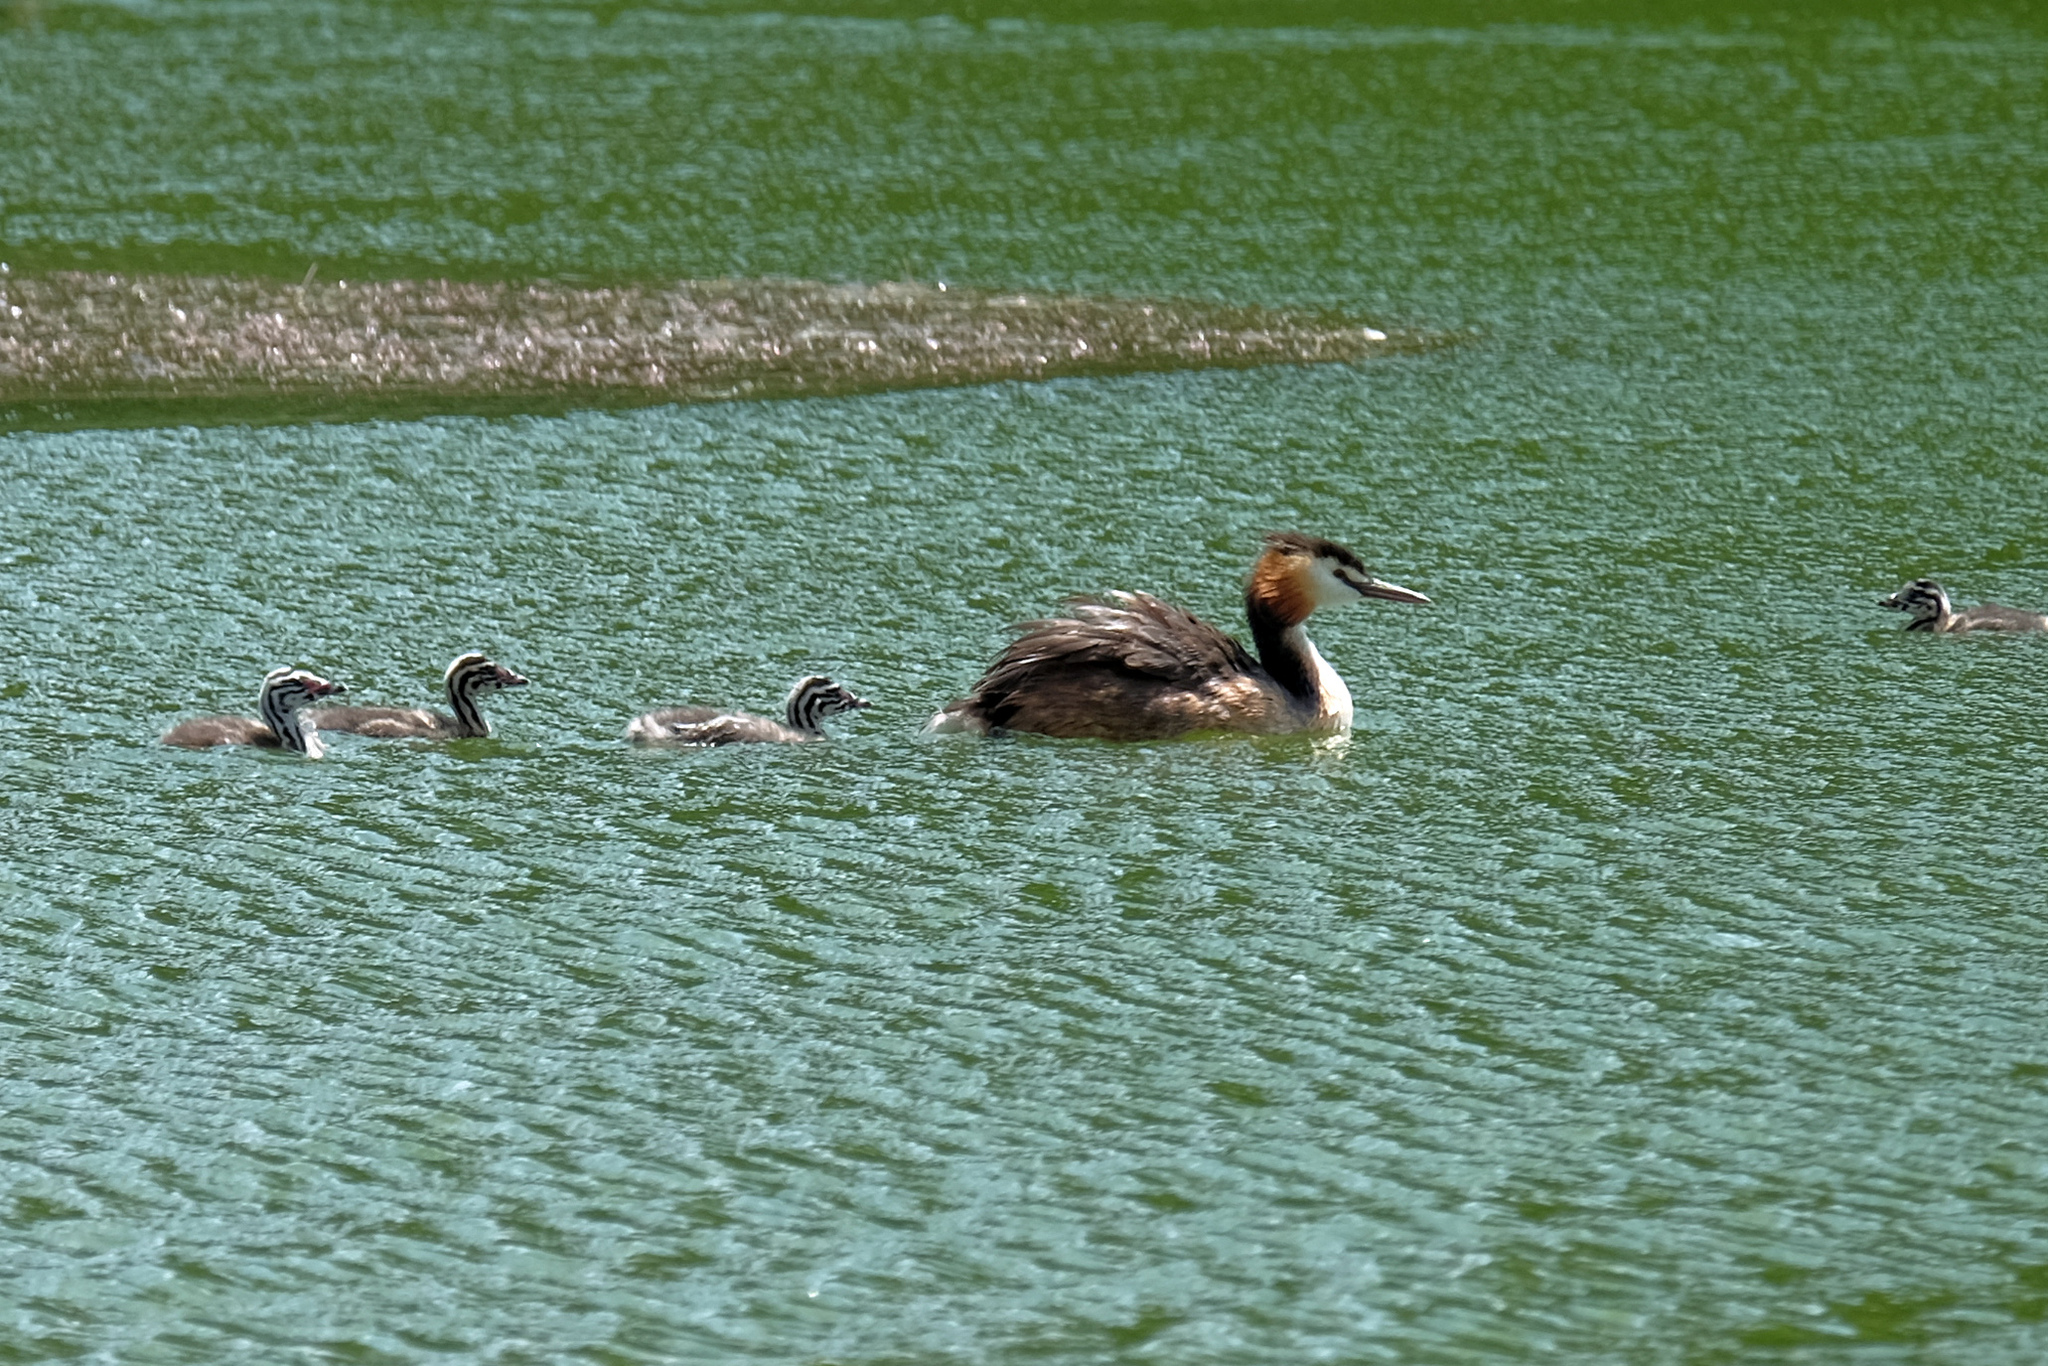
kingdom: Animalia
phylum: Chordata
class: Aves
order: Podicipediformes
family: Podicipedidae
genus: Podiceps
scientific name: Podiceps cristatus
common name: Great crested grebe
